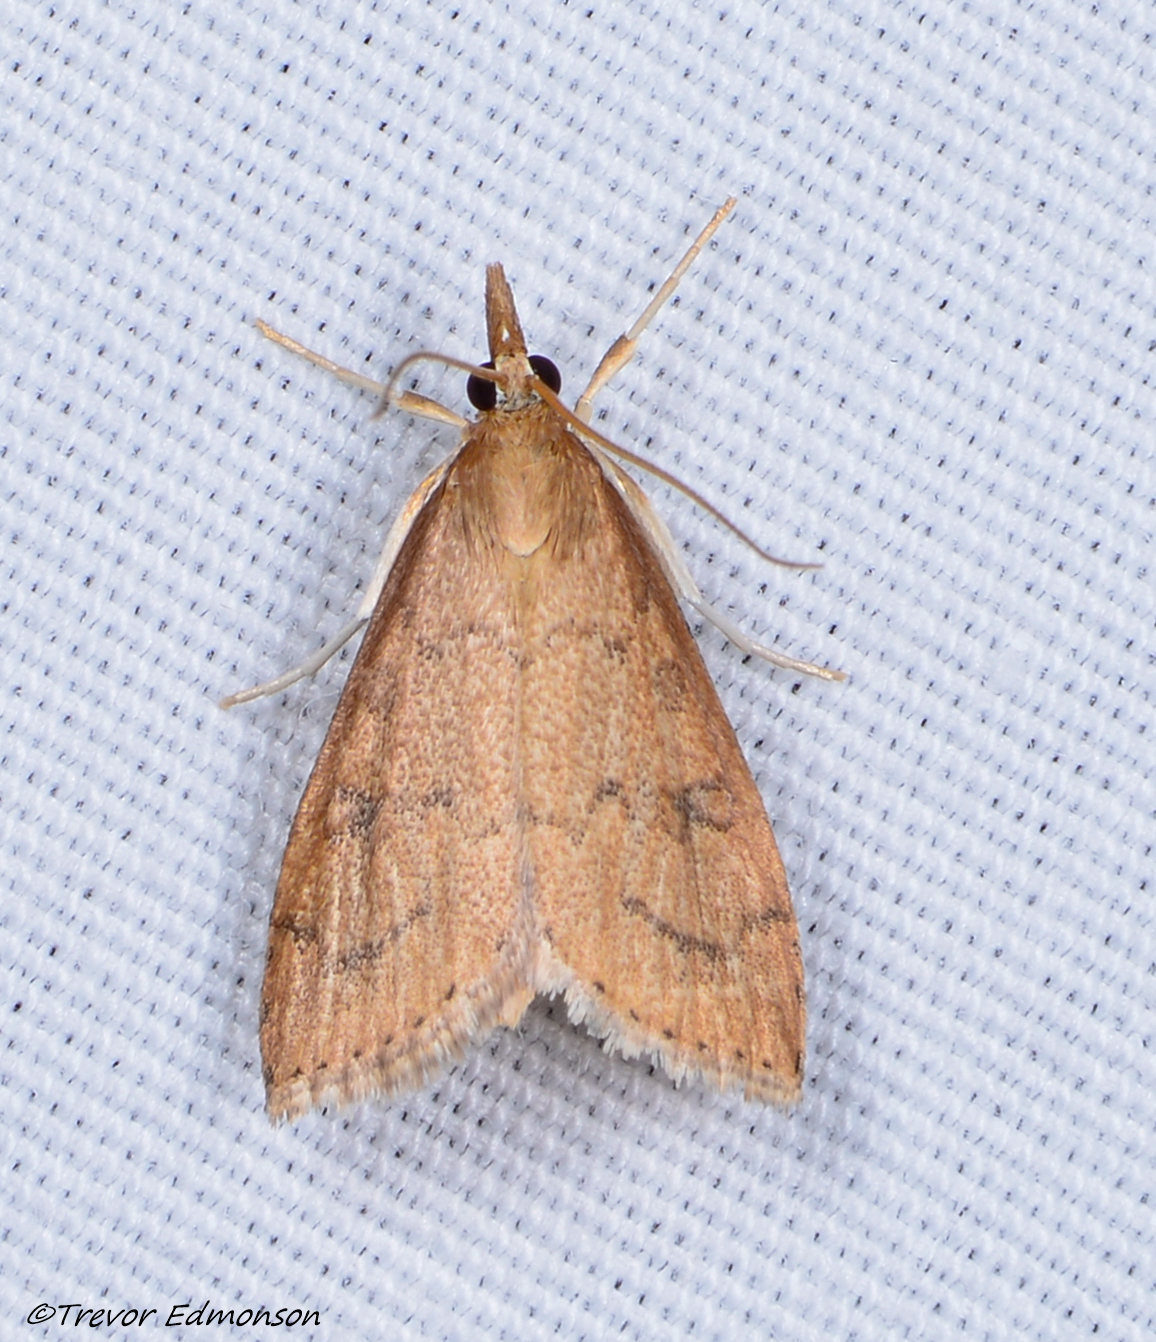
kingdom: Animalia
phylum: Arthropoda
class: Insecta
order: Lepidoptera
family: Crambidae
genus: Udea
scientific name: Udea rubigalis
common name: Celery leaftier moth
